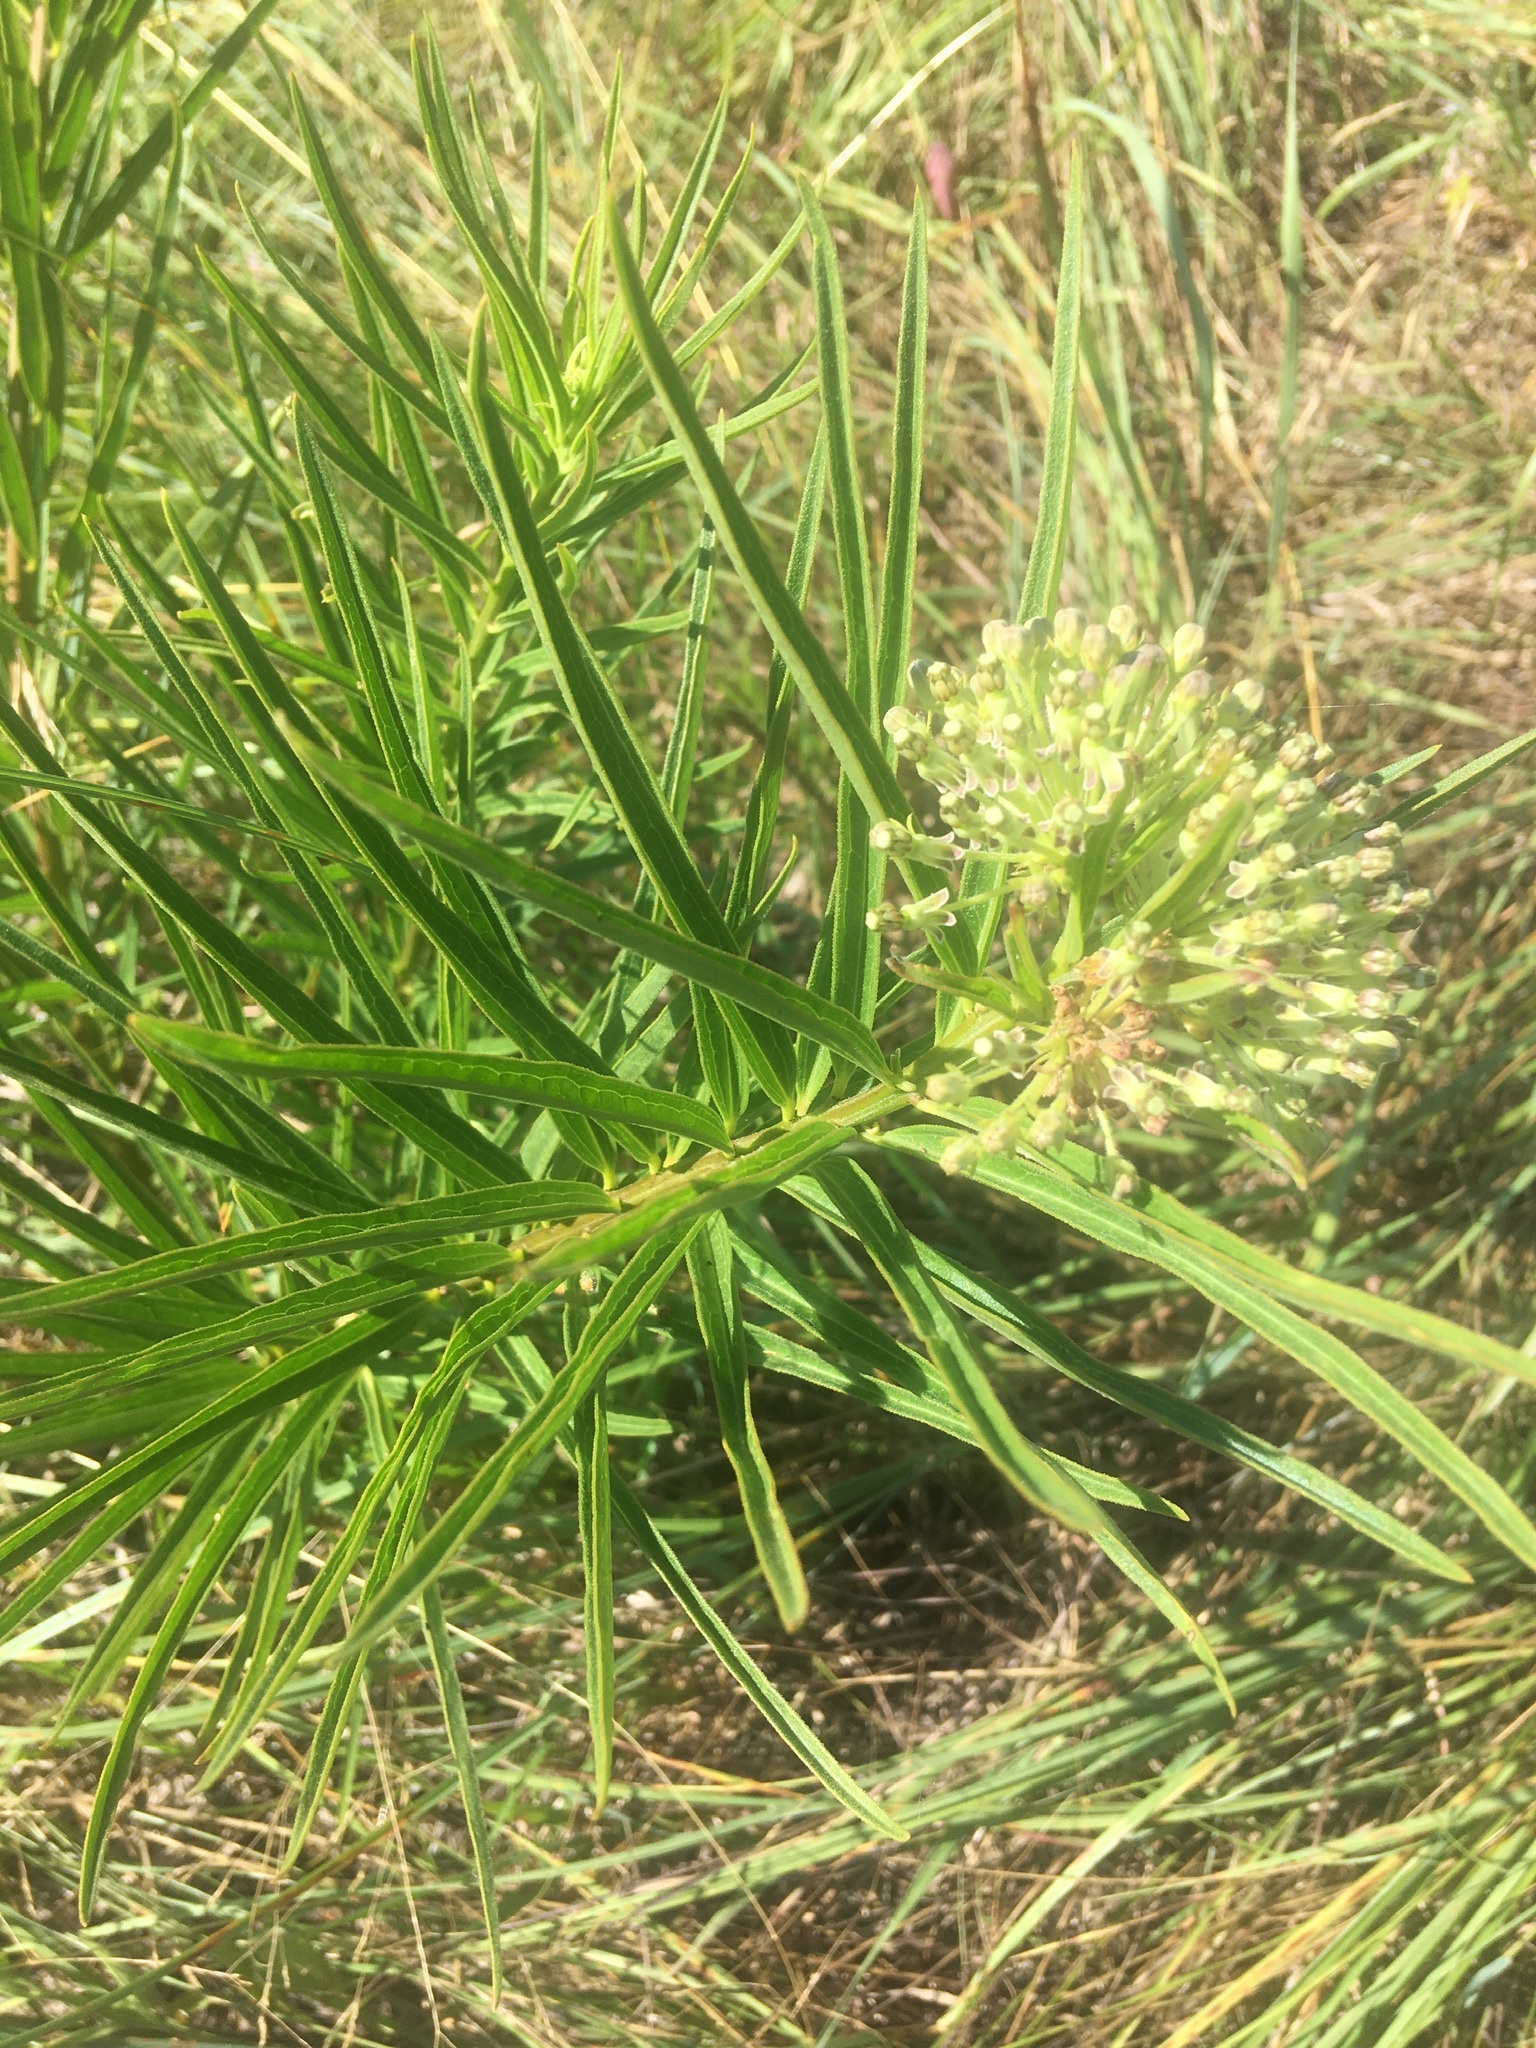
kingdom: Plantae
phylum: Tracheophyta
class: Magnoliopsida
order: Gentianales
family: Apocynaceae
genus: Asclepias
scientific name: Asclepias hirtella
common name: Prairie milkweed
